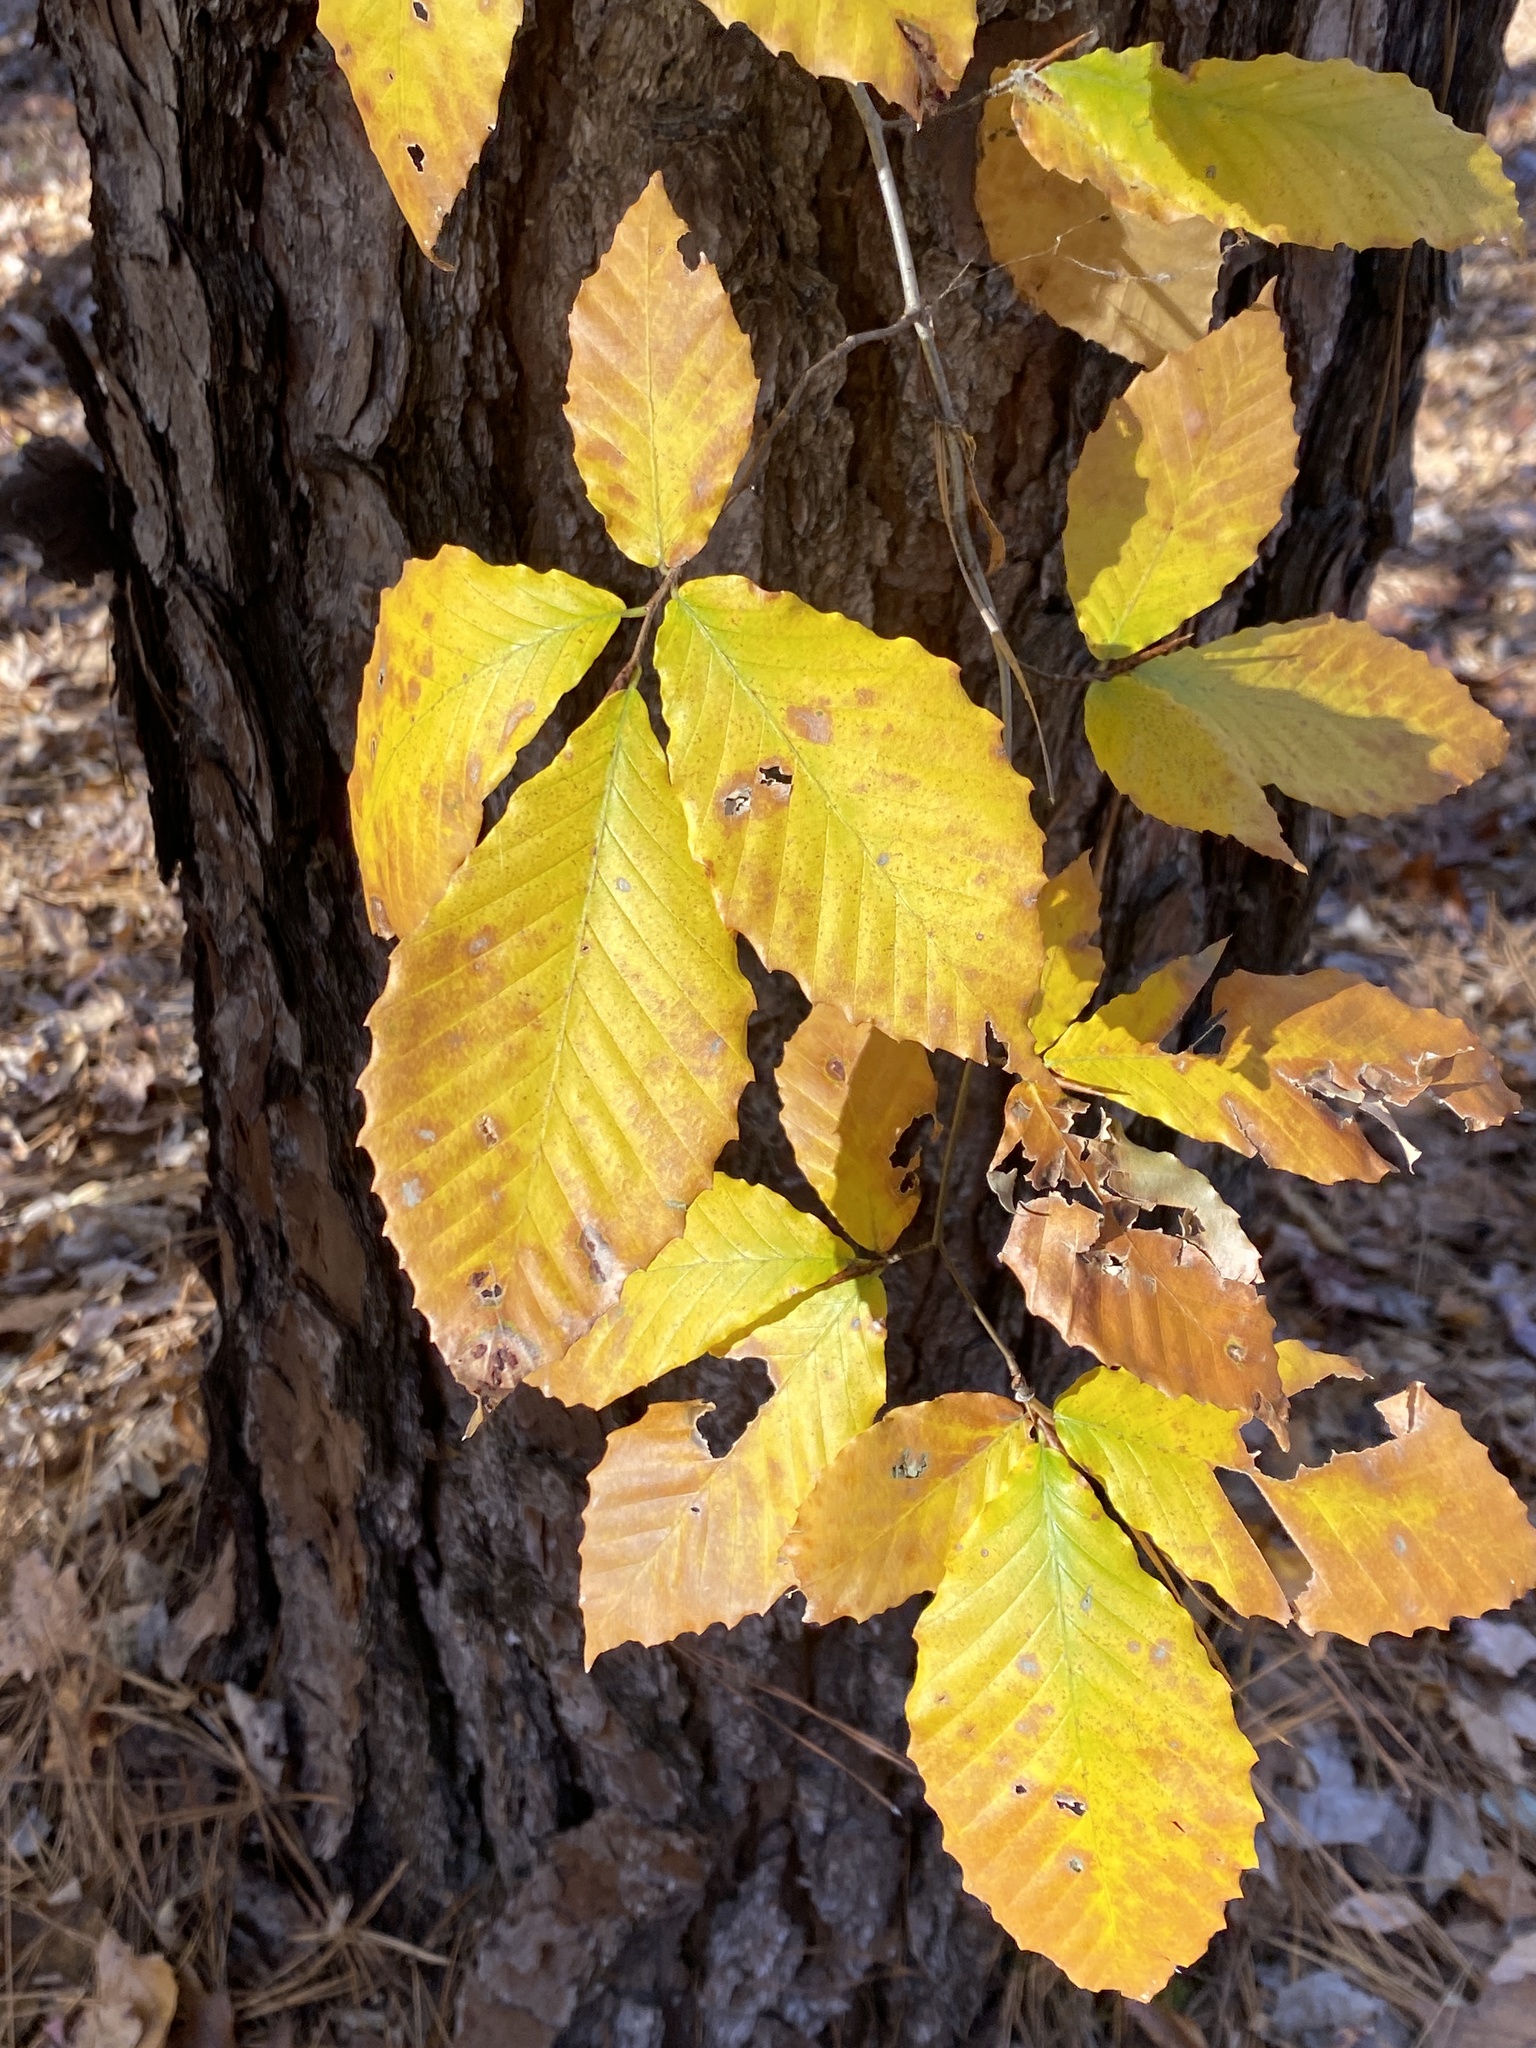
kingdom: Plantae
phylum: Tracheophyta
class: Magnoliopsida
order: Fagales
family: Fagaceae
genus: Fagus
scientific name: Fagus grandifolia
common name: American beech
